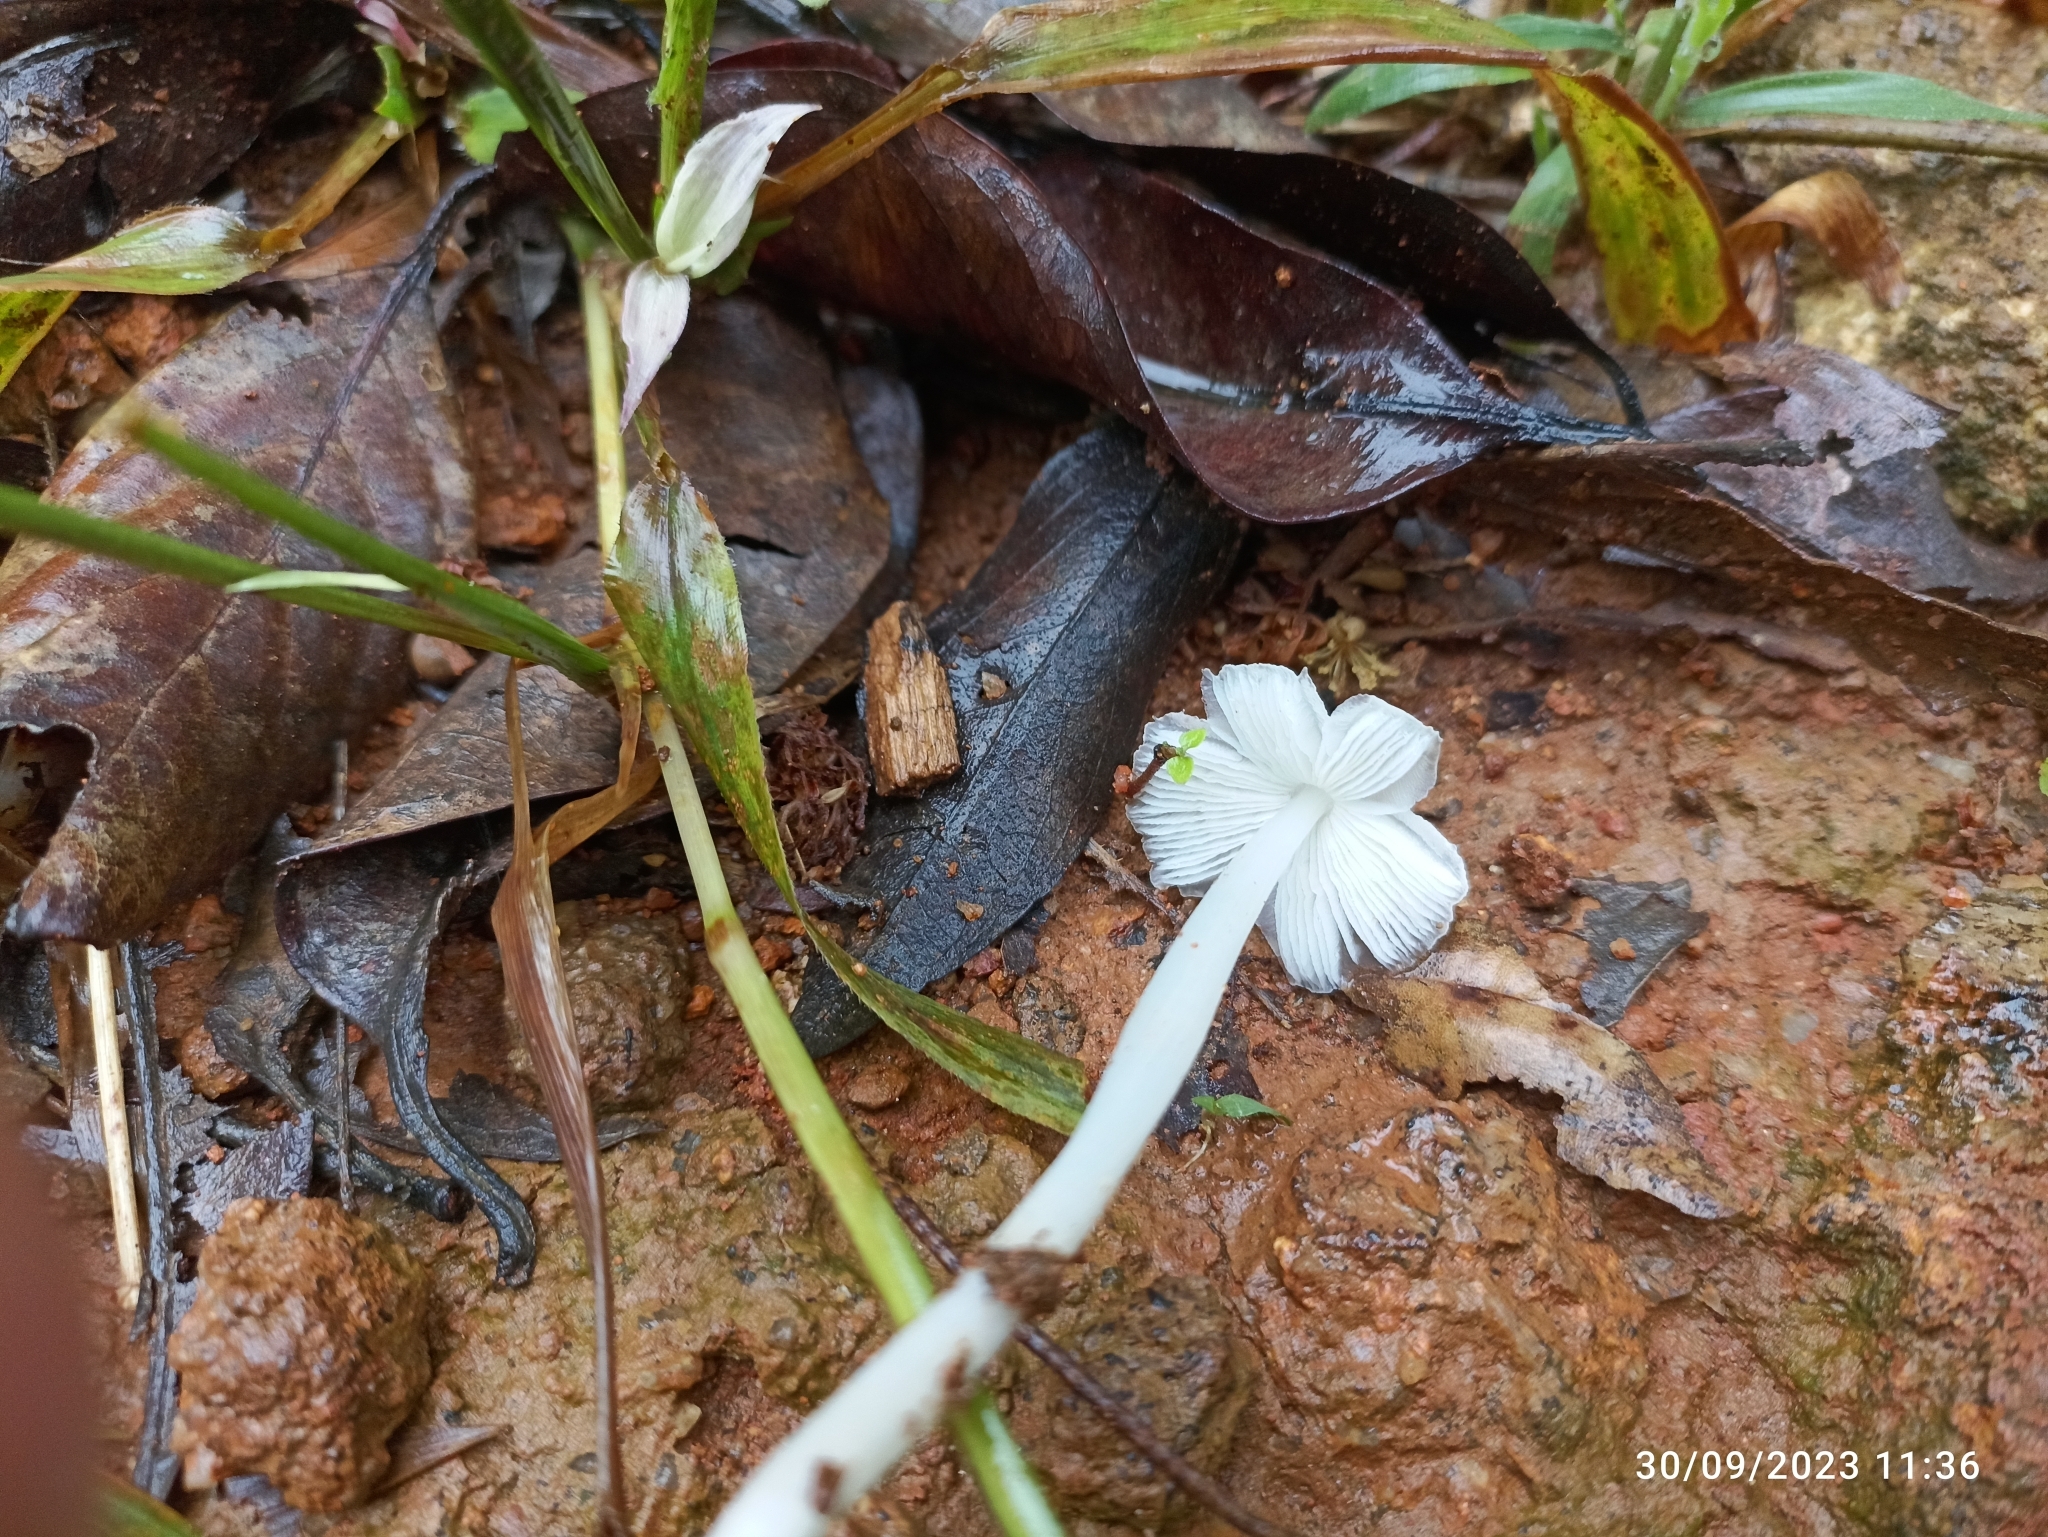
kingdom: Fungi
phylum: Basidiomycota
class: Agaricomycetes
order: Agaricales
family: Lyophyllaceae
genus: Termitomyces
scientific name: Termitomyces microcarpus
